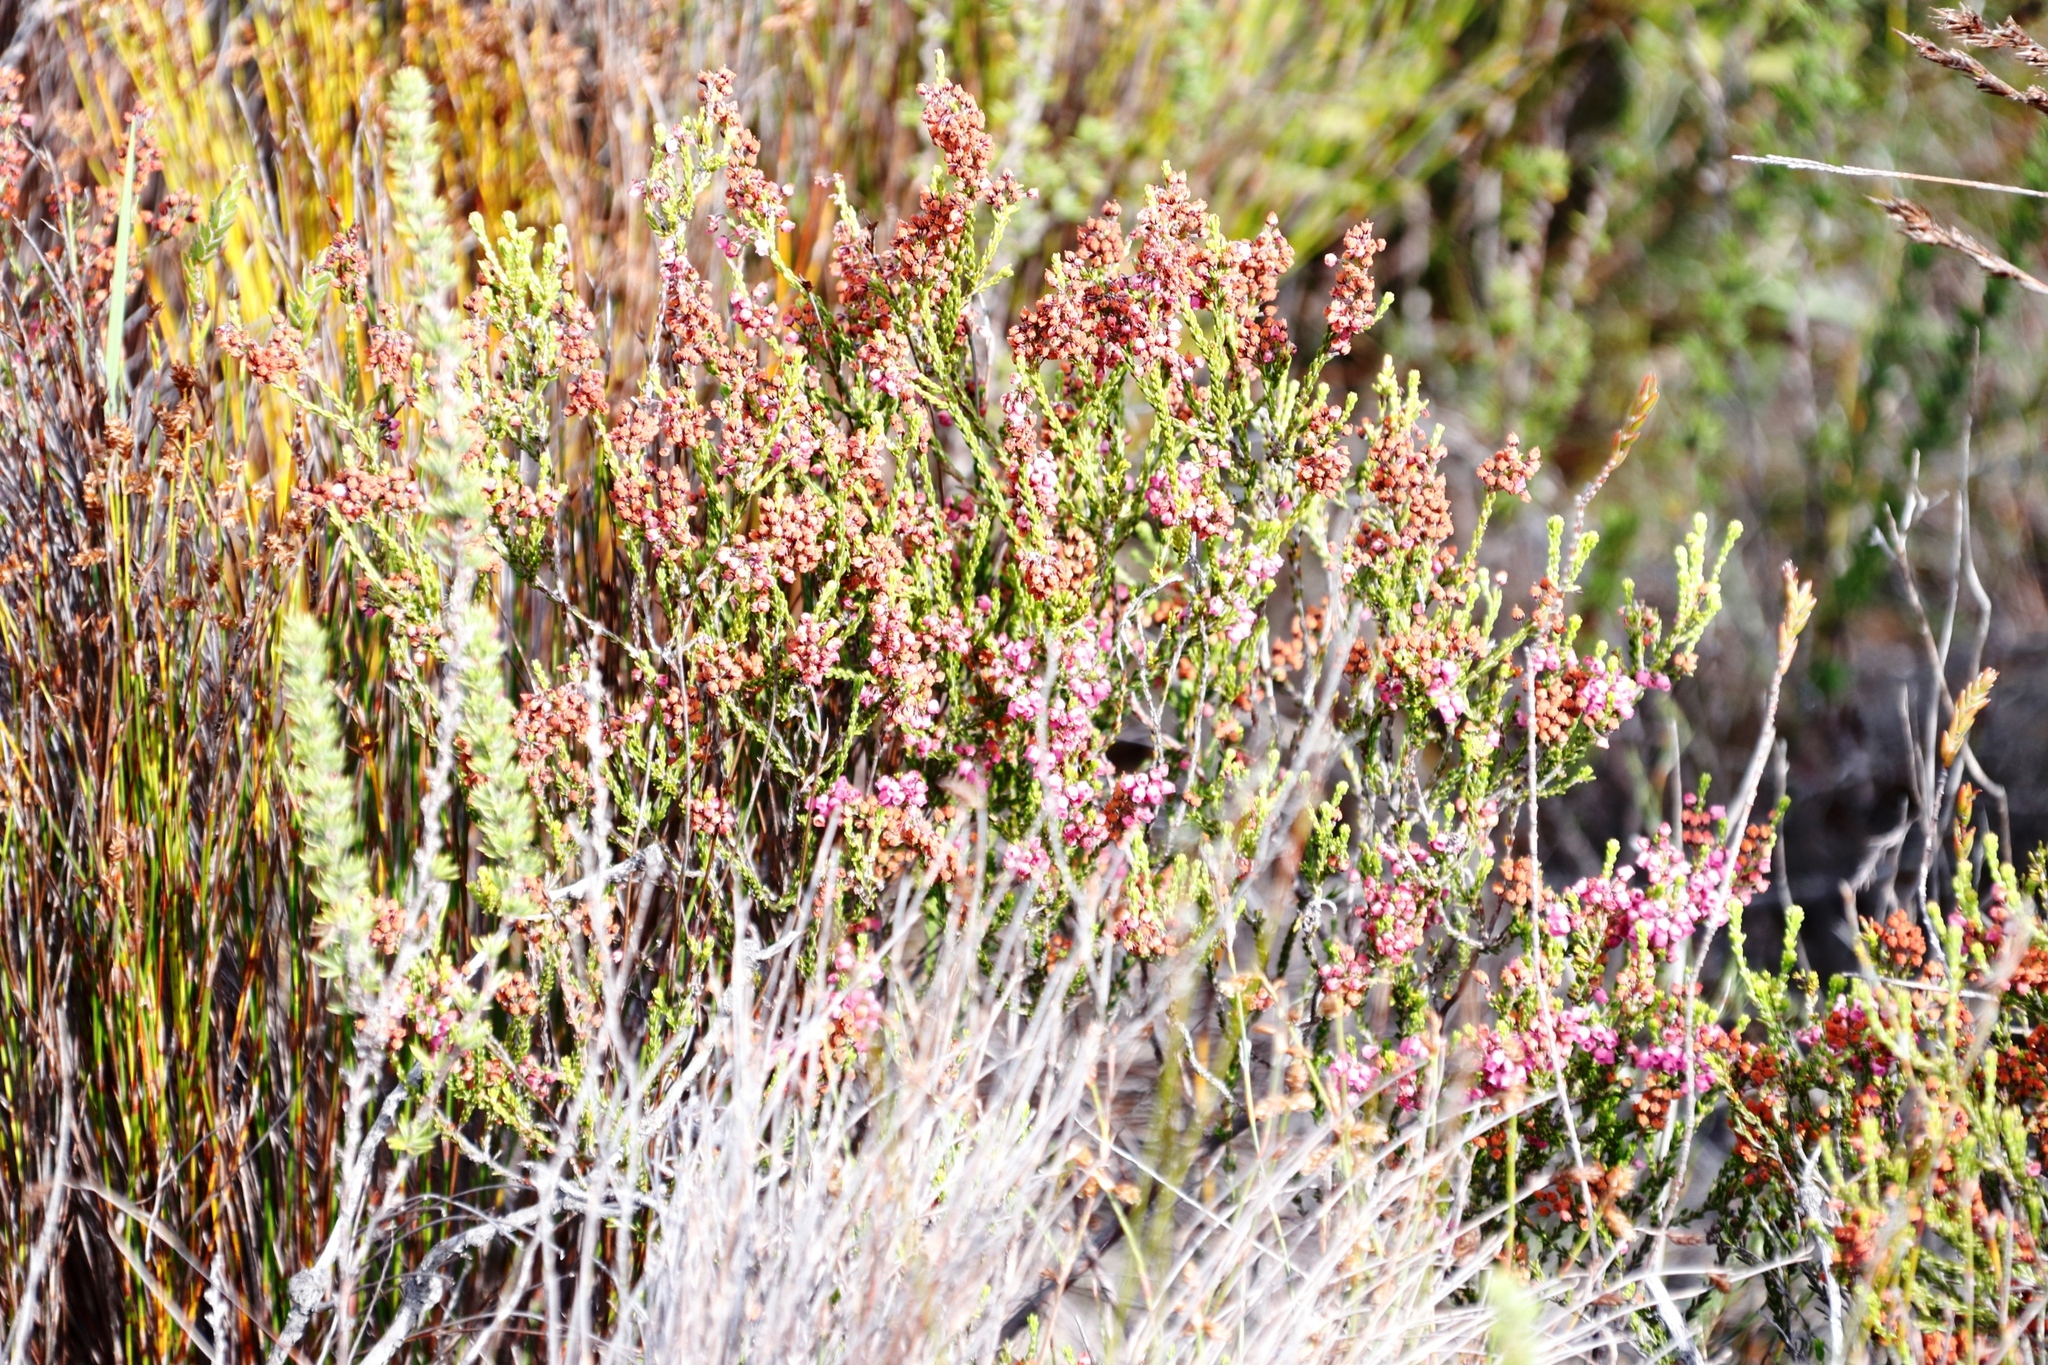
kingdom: Plantae
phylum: Tracheophyta
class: Magnoliopsida
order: Ericales
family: Ericaceae
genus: Erica
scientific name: Erica pulchella
